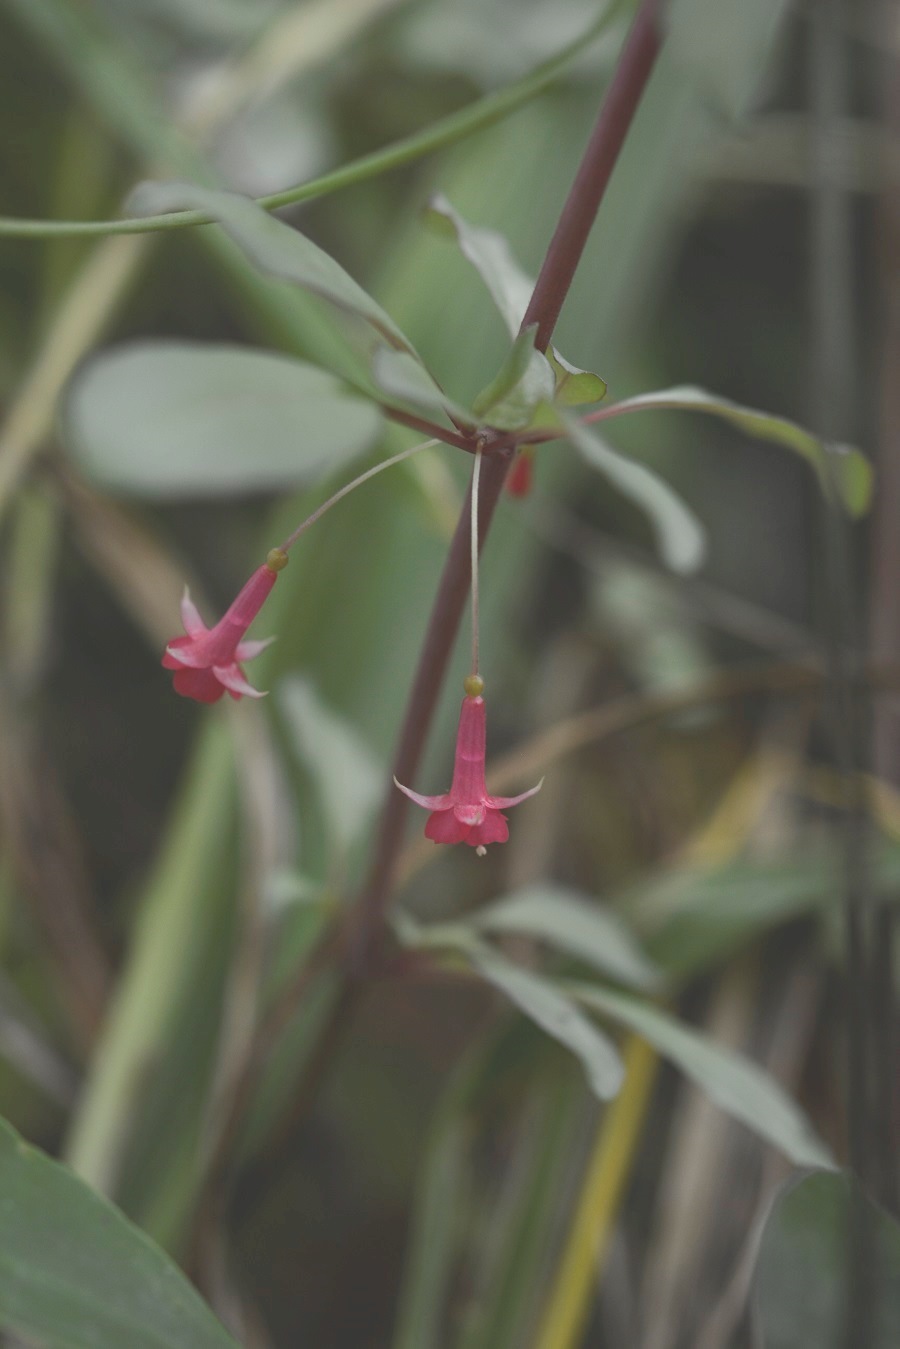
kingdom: Plantae
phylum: Tracheophyta
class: Magnoliopsida
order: Myrtales
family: Onagraceae
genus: Fuchsia
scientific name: Fuchsia thymifolia
